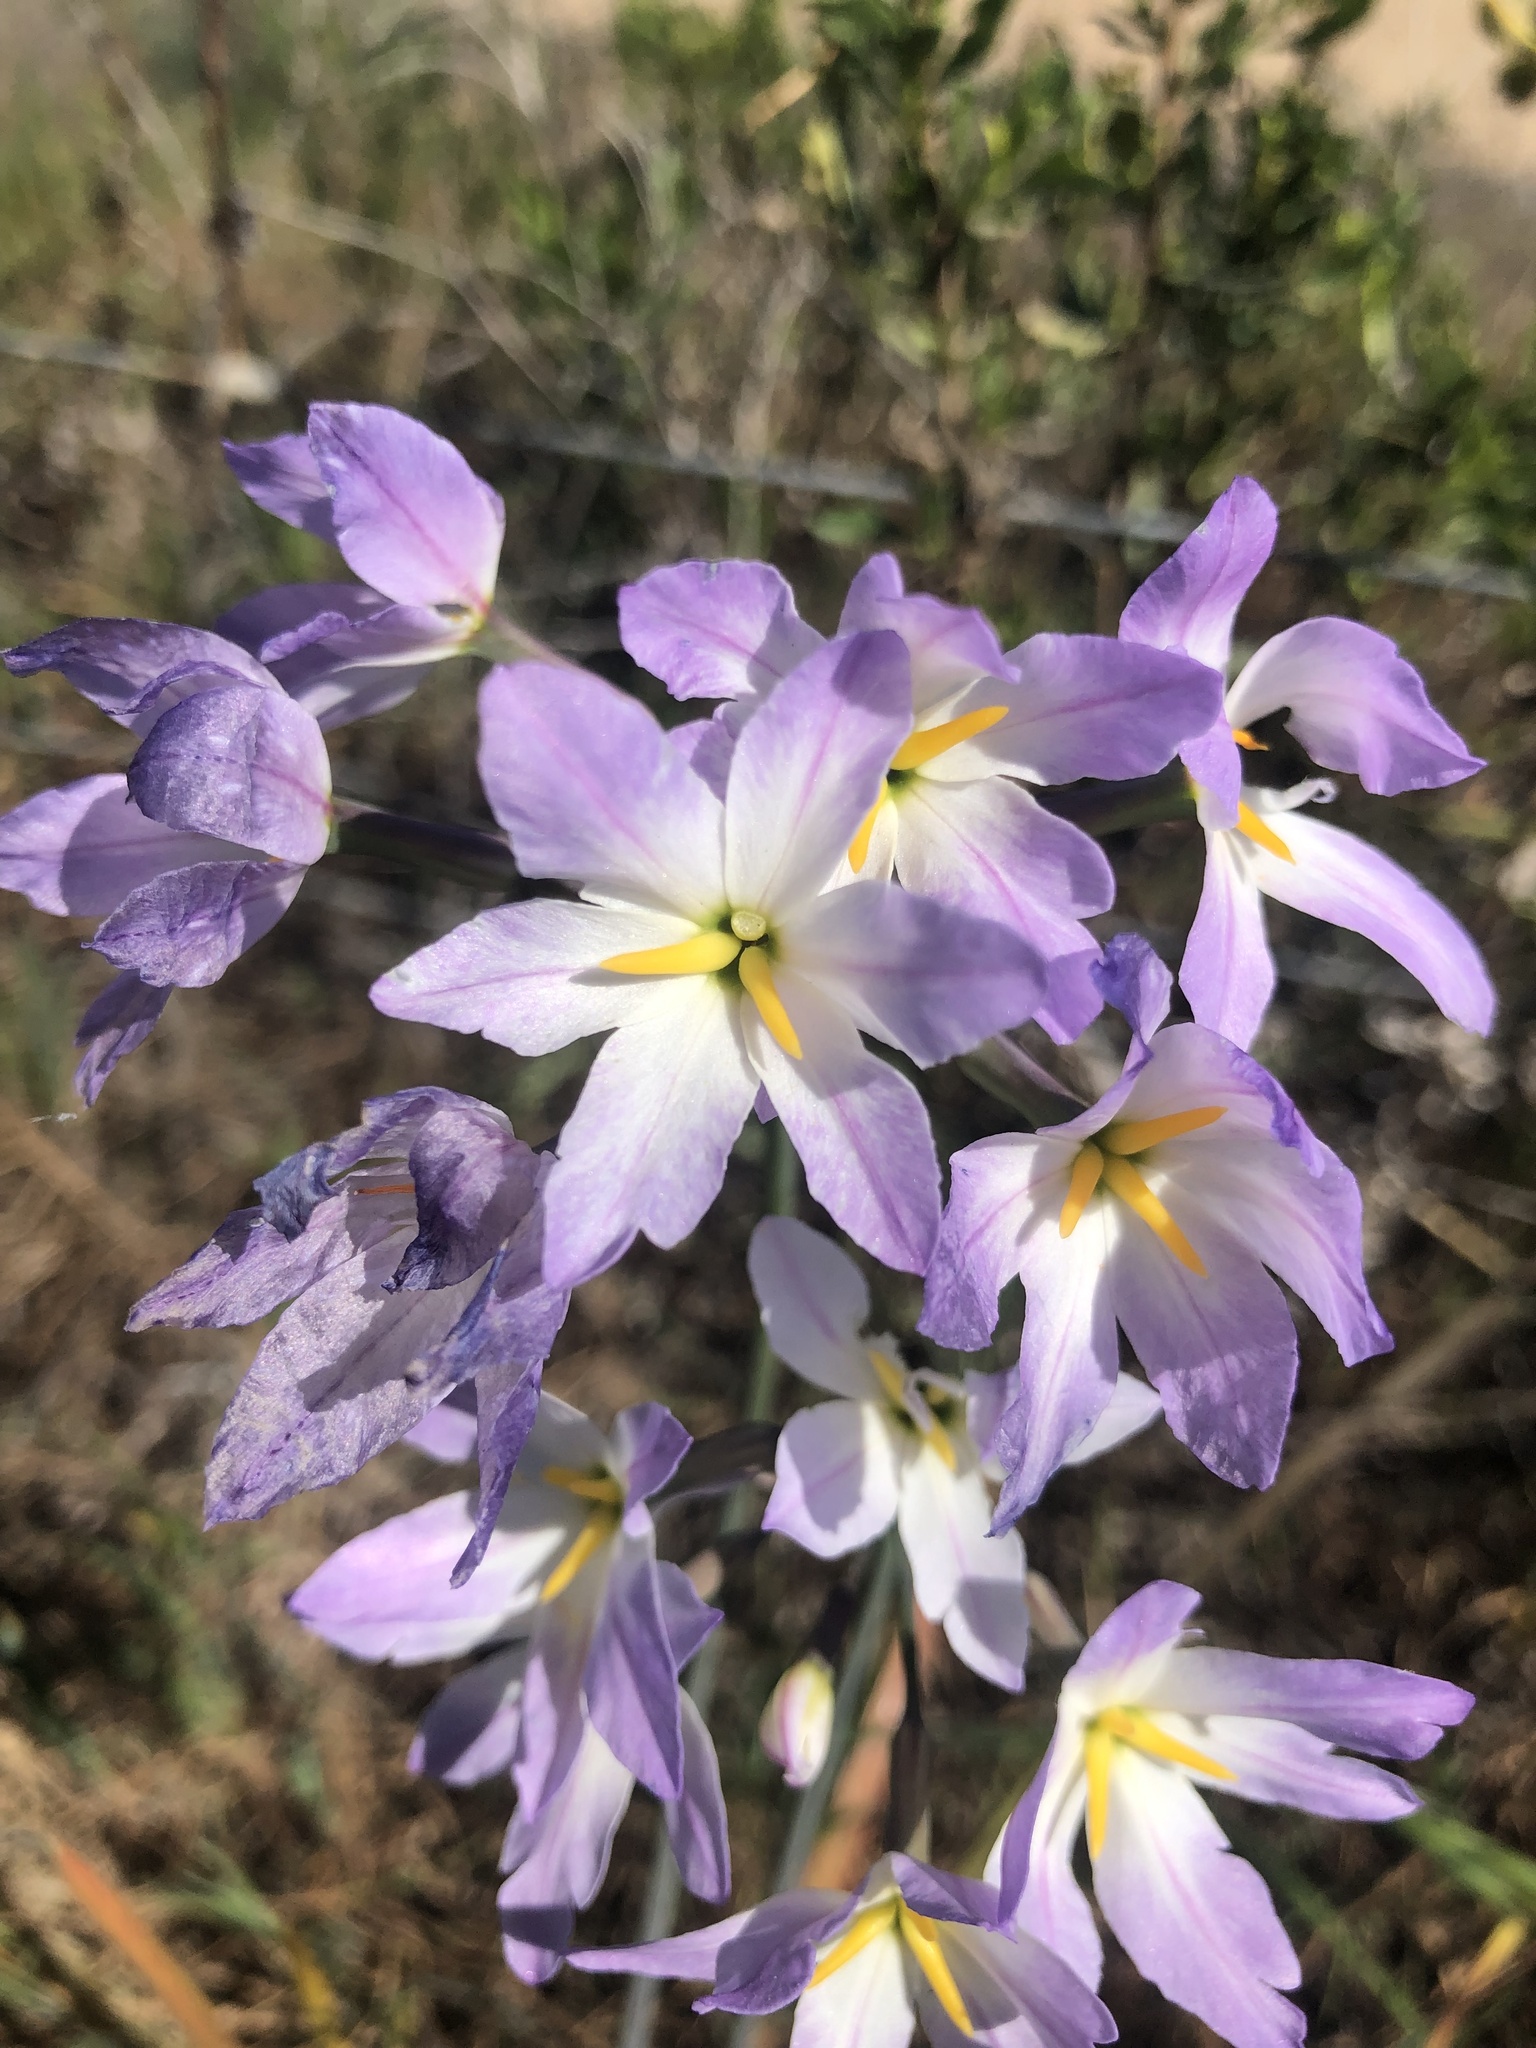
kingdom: Plantae
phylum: Tracheophyta
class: Liliopsida
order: Asparagales
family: Amaryllidaceae
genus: Leucocoryne
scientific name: Leucocoryne ixioides
